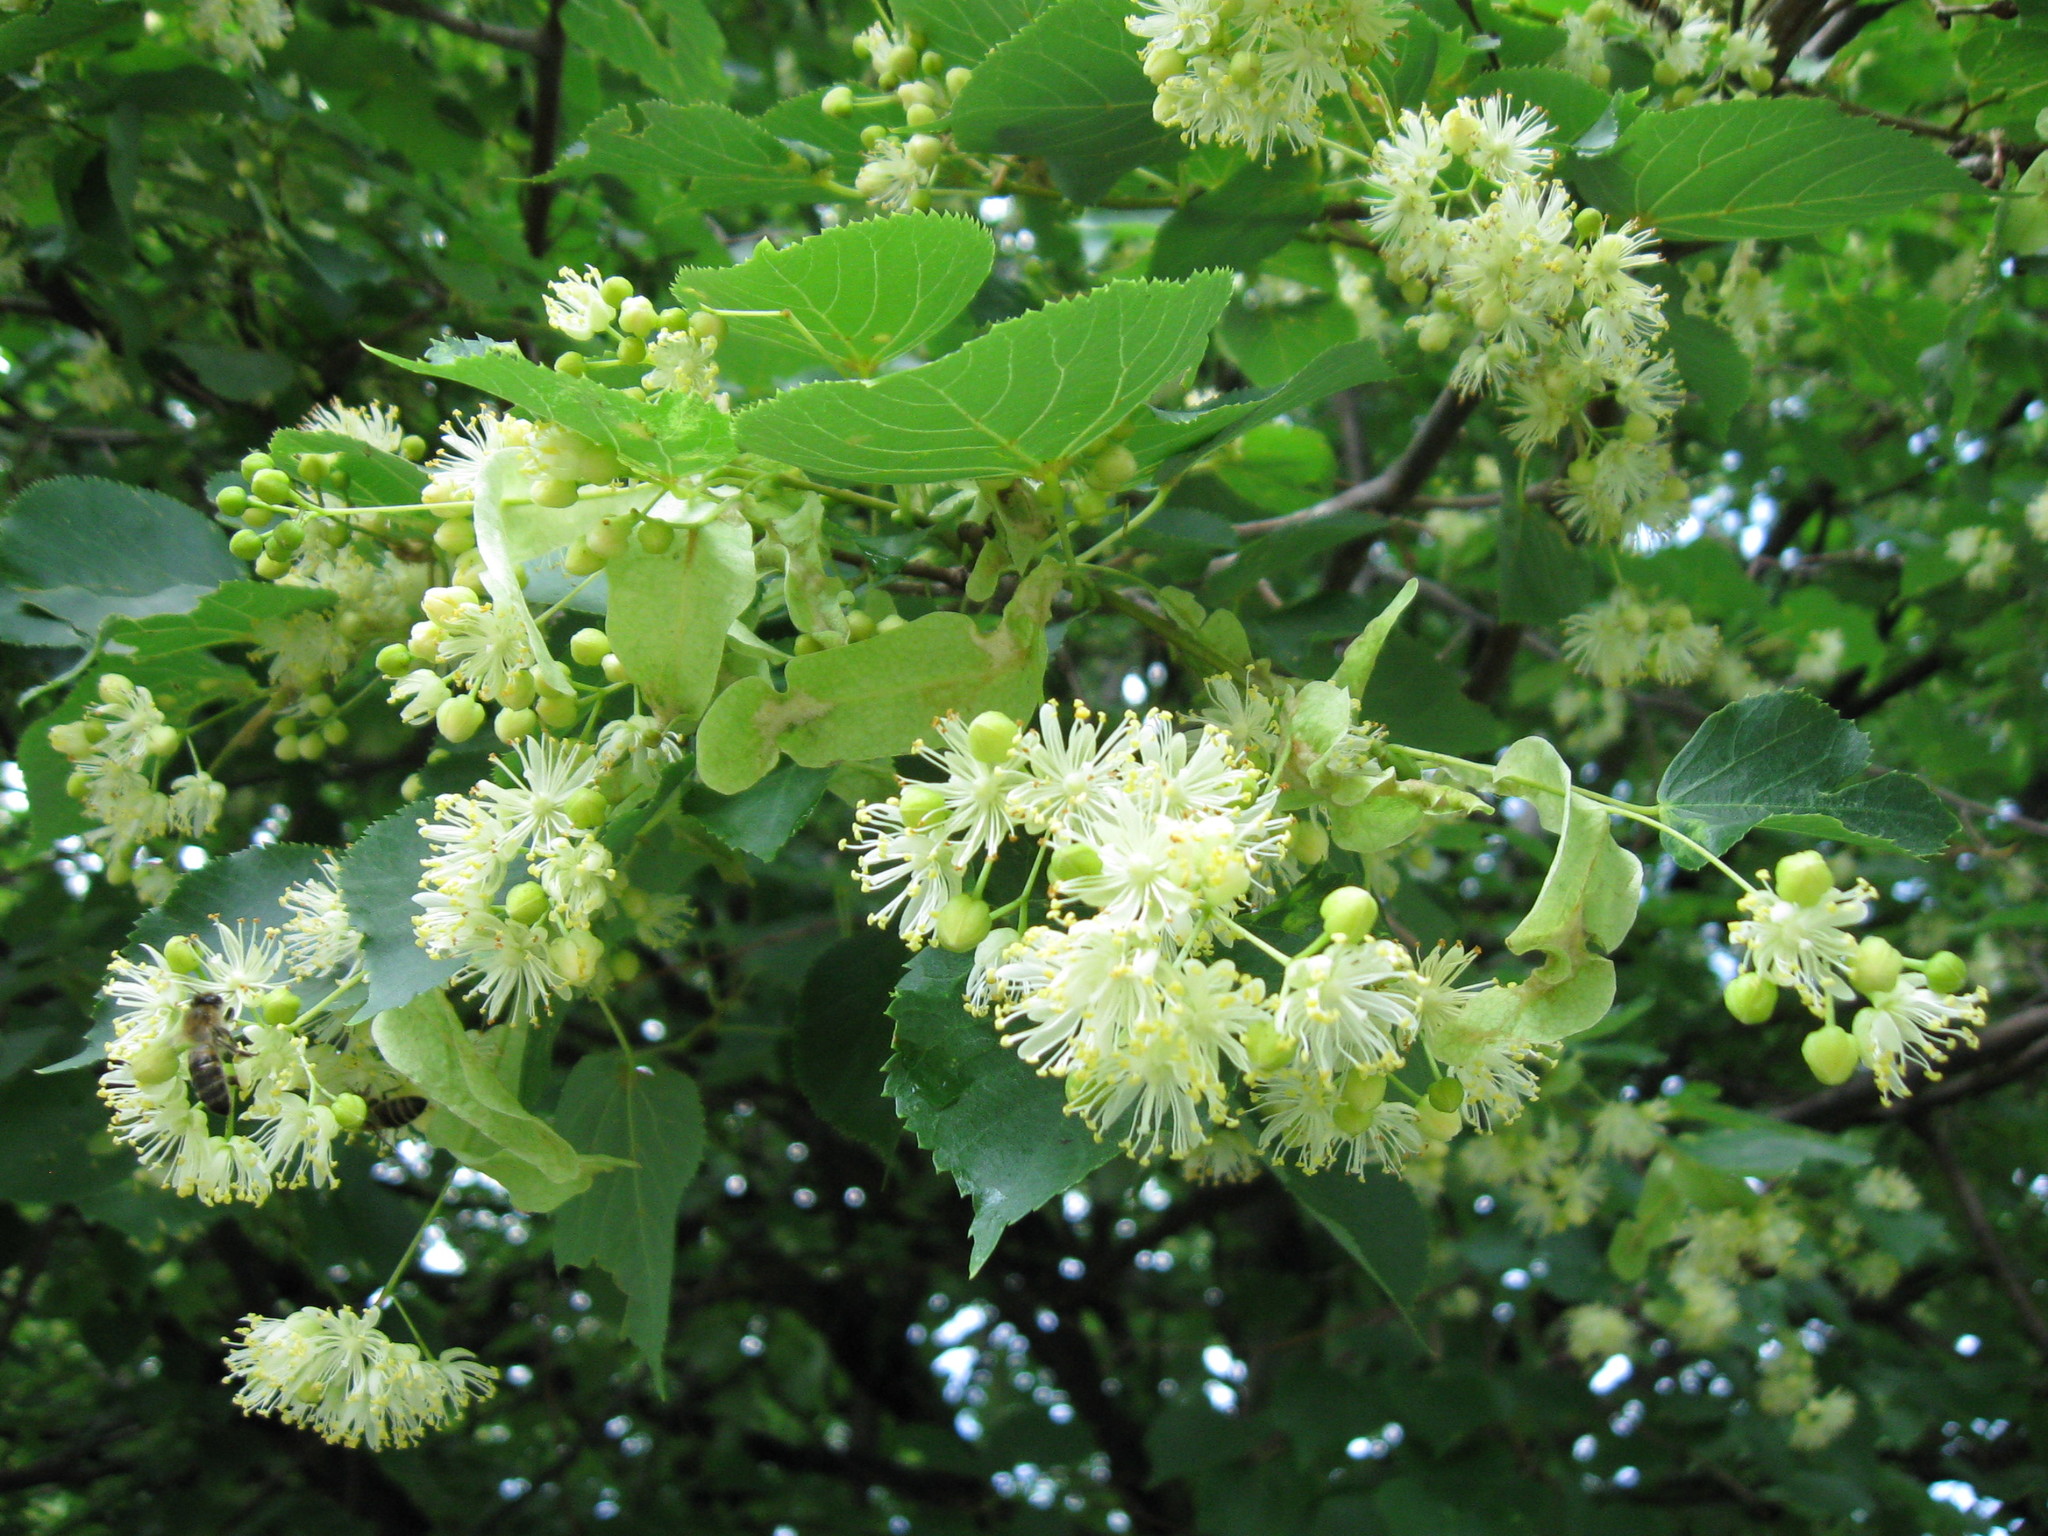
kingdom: Plantae
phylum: Tracheophyta
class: Magnoliopsida
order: Malvales
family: Malvaceae
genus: Tilia
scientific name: Tilia cordata
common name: Small-leaved lime
